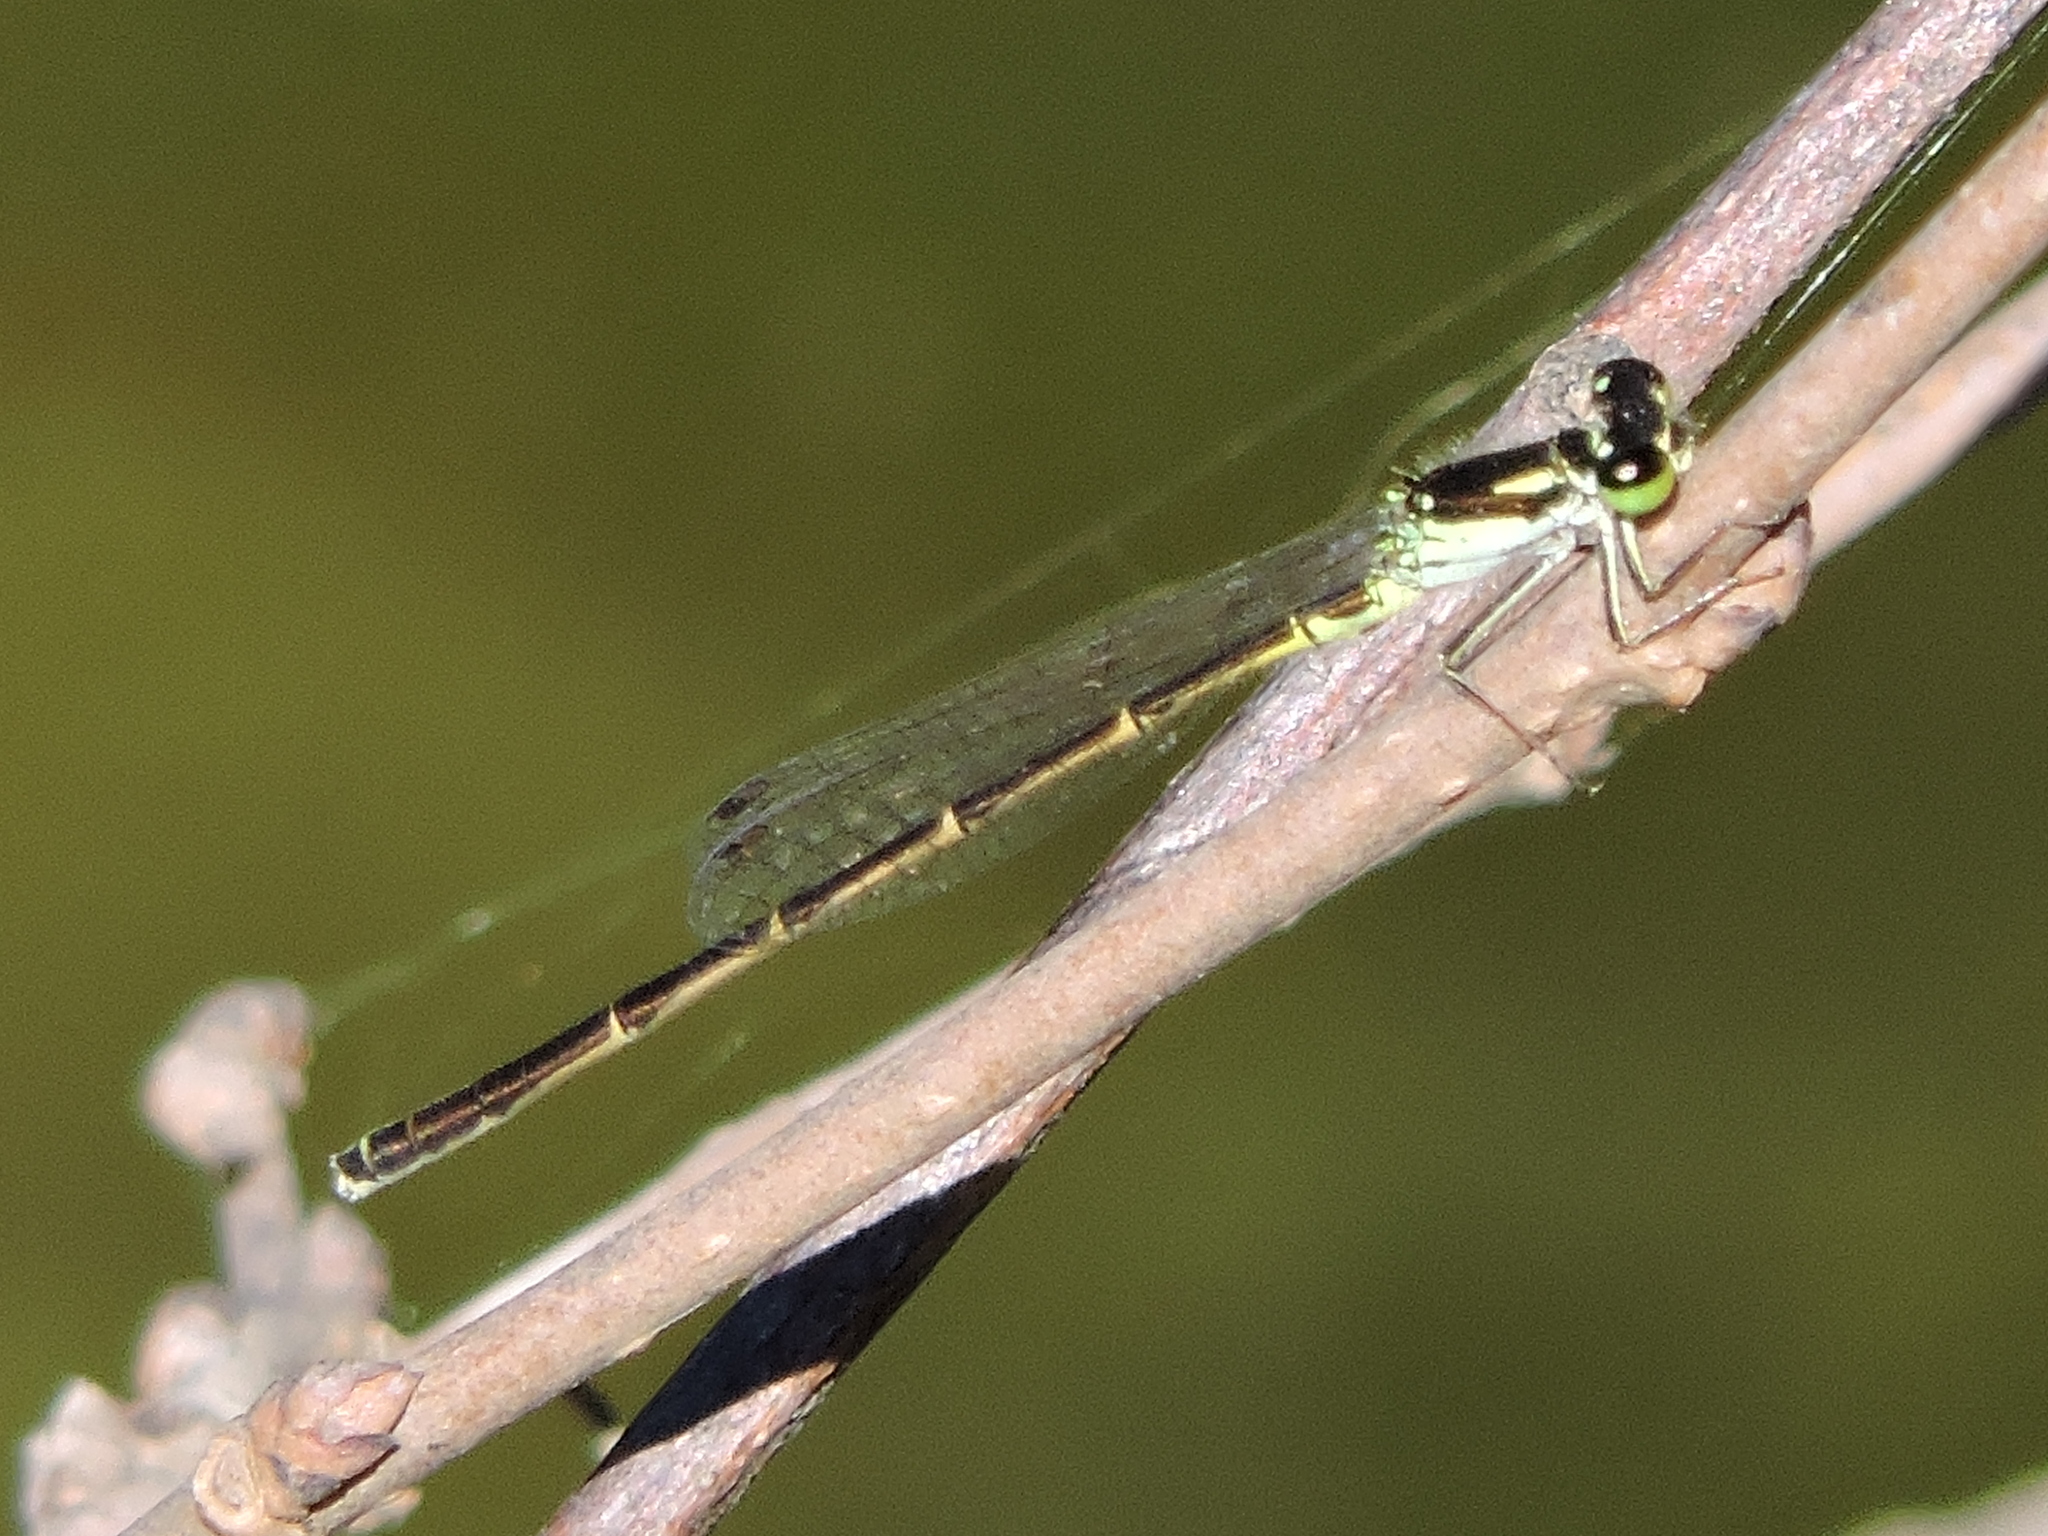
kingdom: Animalia
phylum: Arthropoda
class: Insecta
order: Odonata
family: Coenagrionidae
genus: Ischnura
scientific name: Ischnura posita
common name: Fragile forktail
